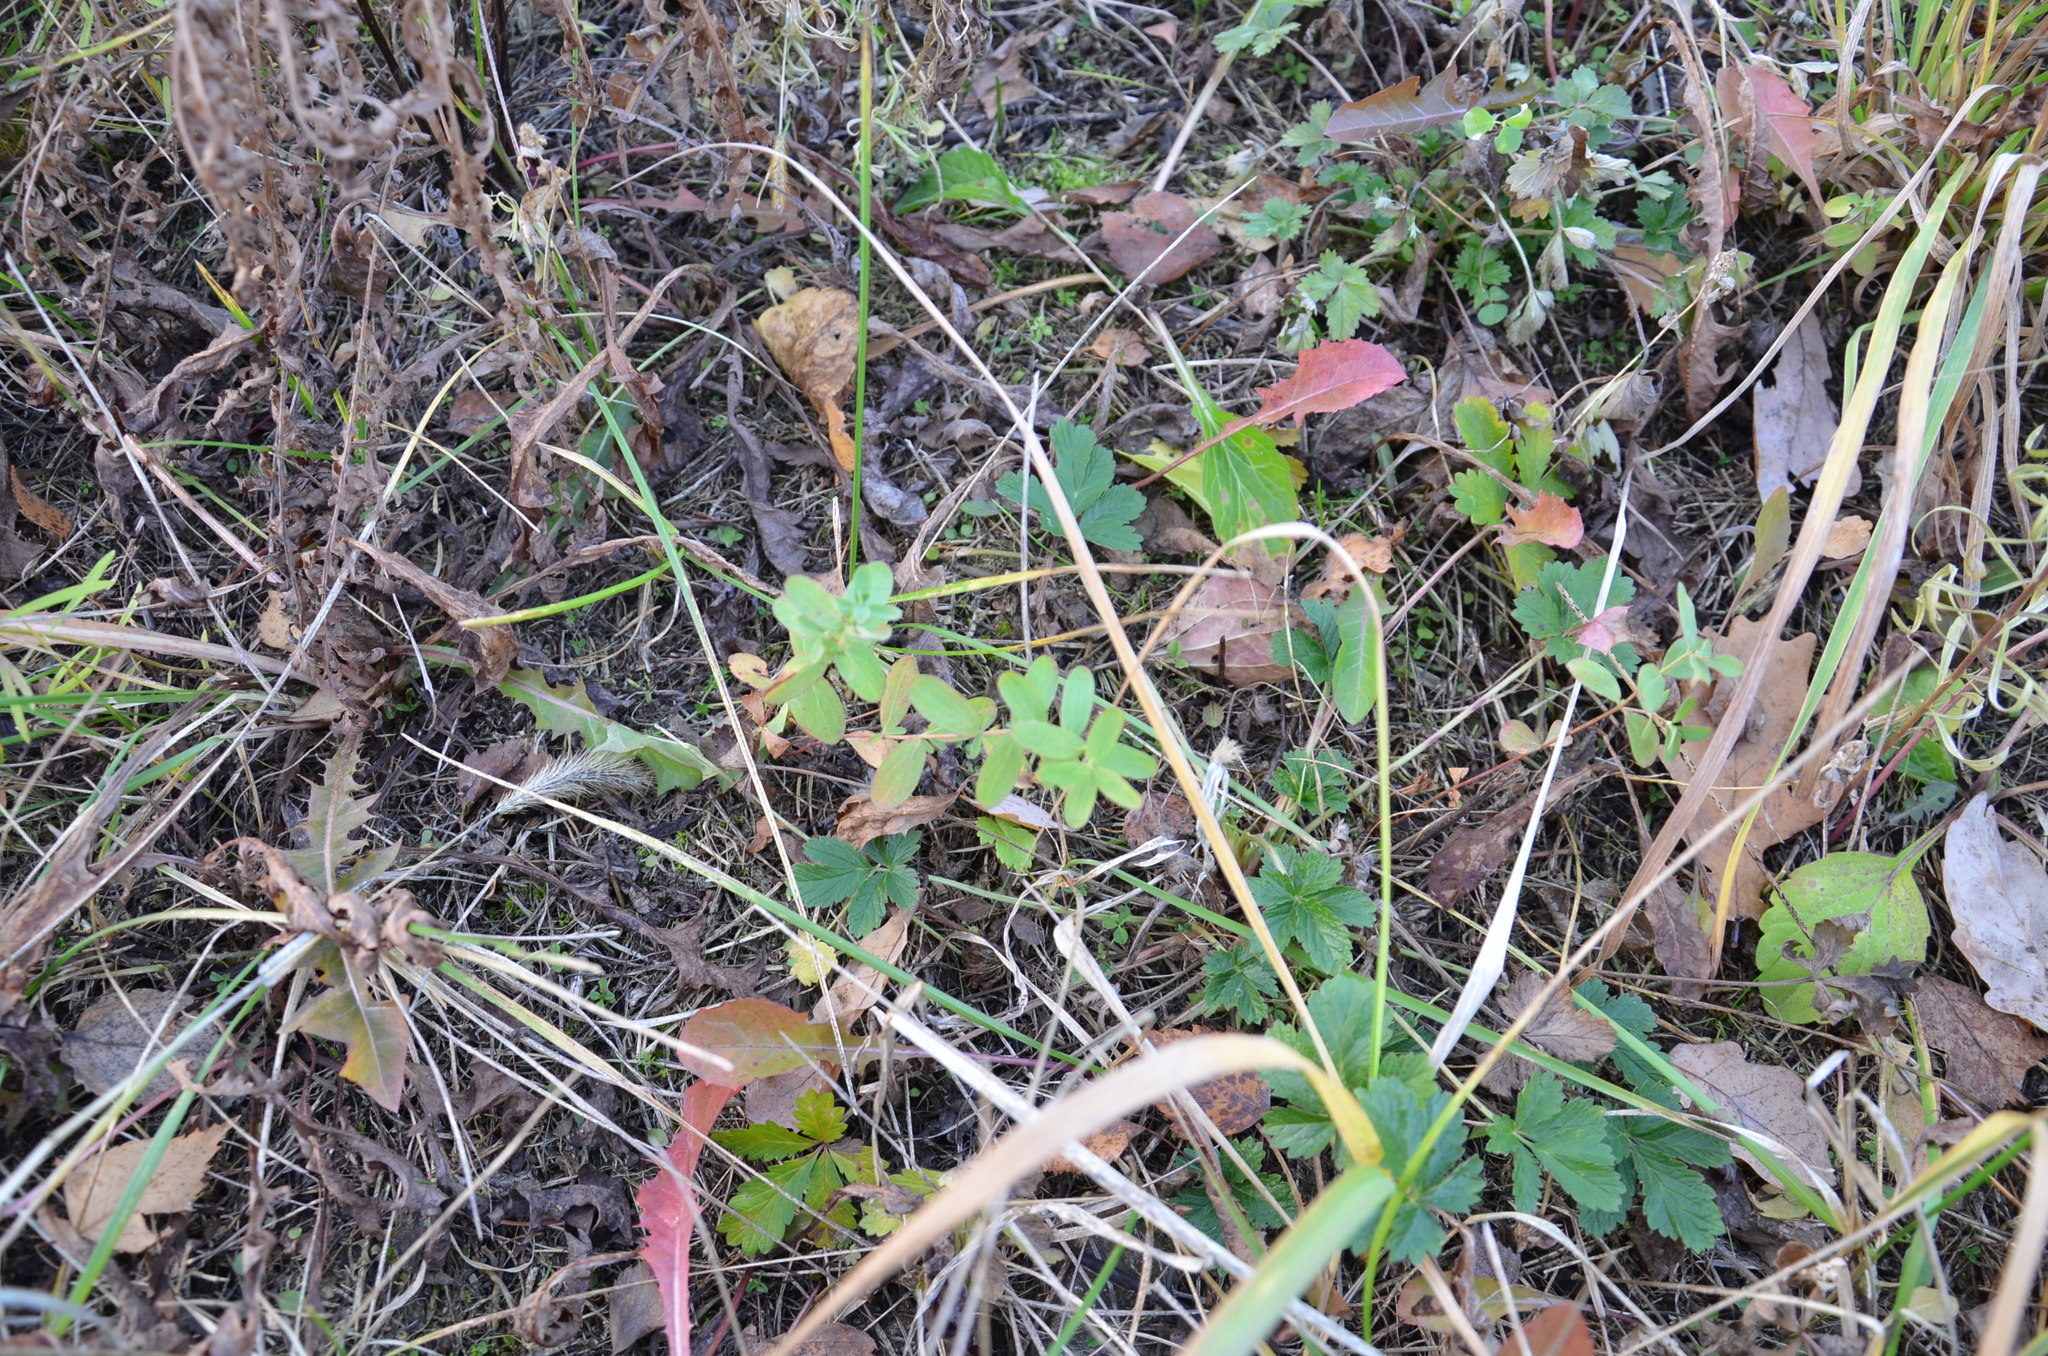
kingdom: Plantae
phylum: Tracheophyta
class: Magnoliopsida
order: Malpighiales
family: Hypericaceae
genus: Hypericum
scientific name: Hypericum perforatum
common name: Common st. johnswort
